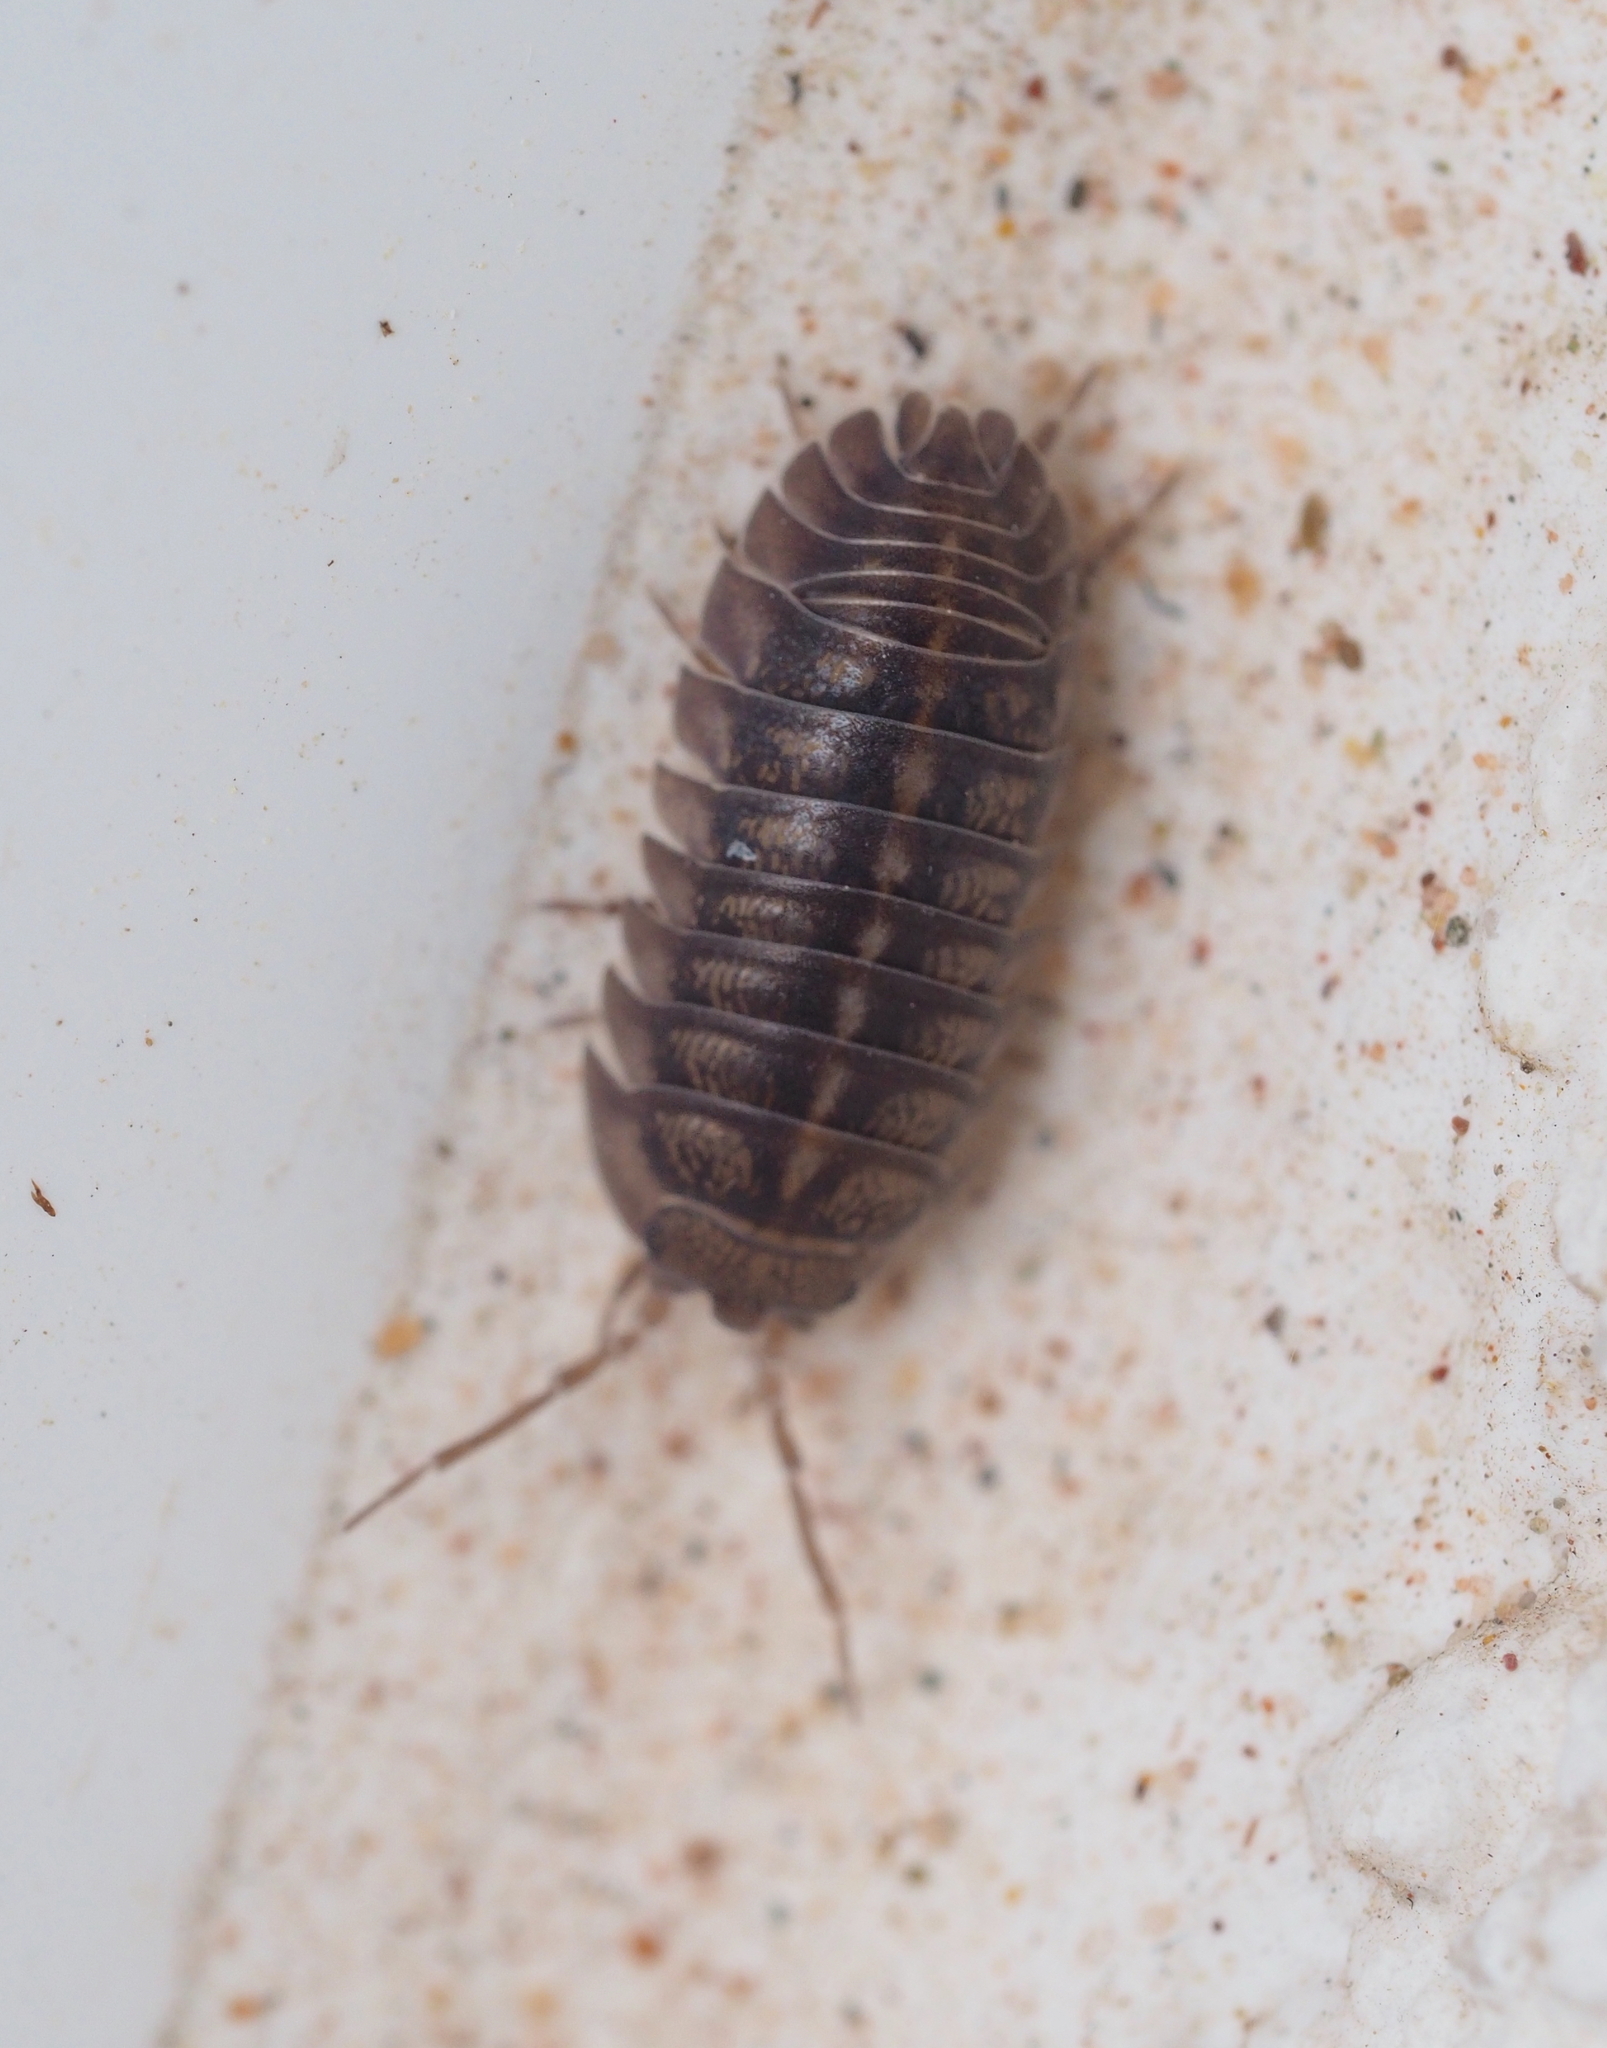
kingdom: Animalia
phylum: Arthropoda
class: Malacostraca
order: Isopoda
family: Armadillidiidae
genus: Armadillidium
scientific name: Armadillidium nasatum
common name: Isopod
